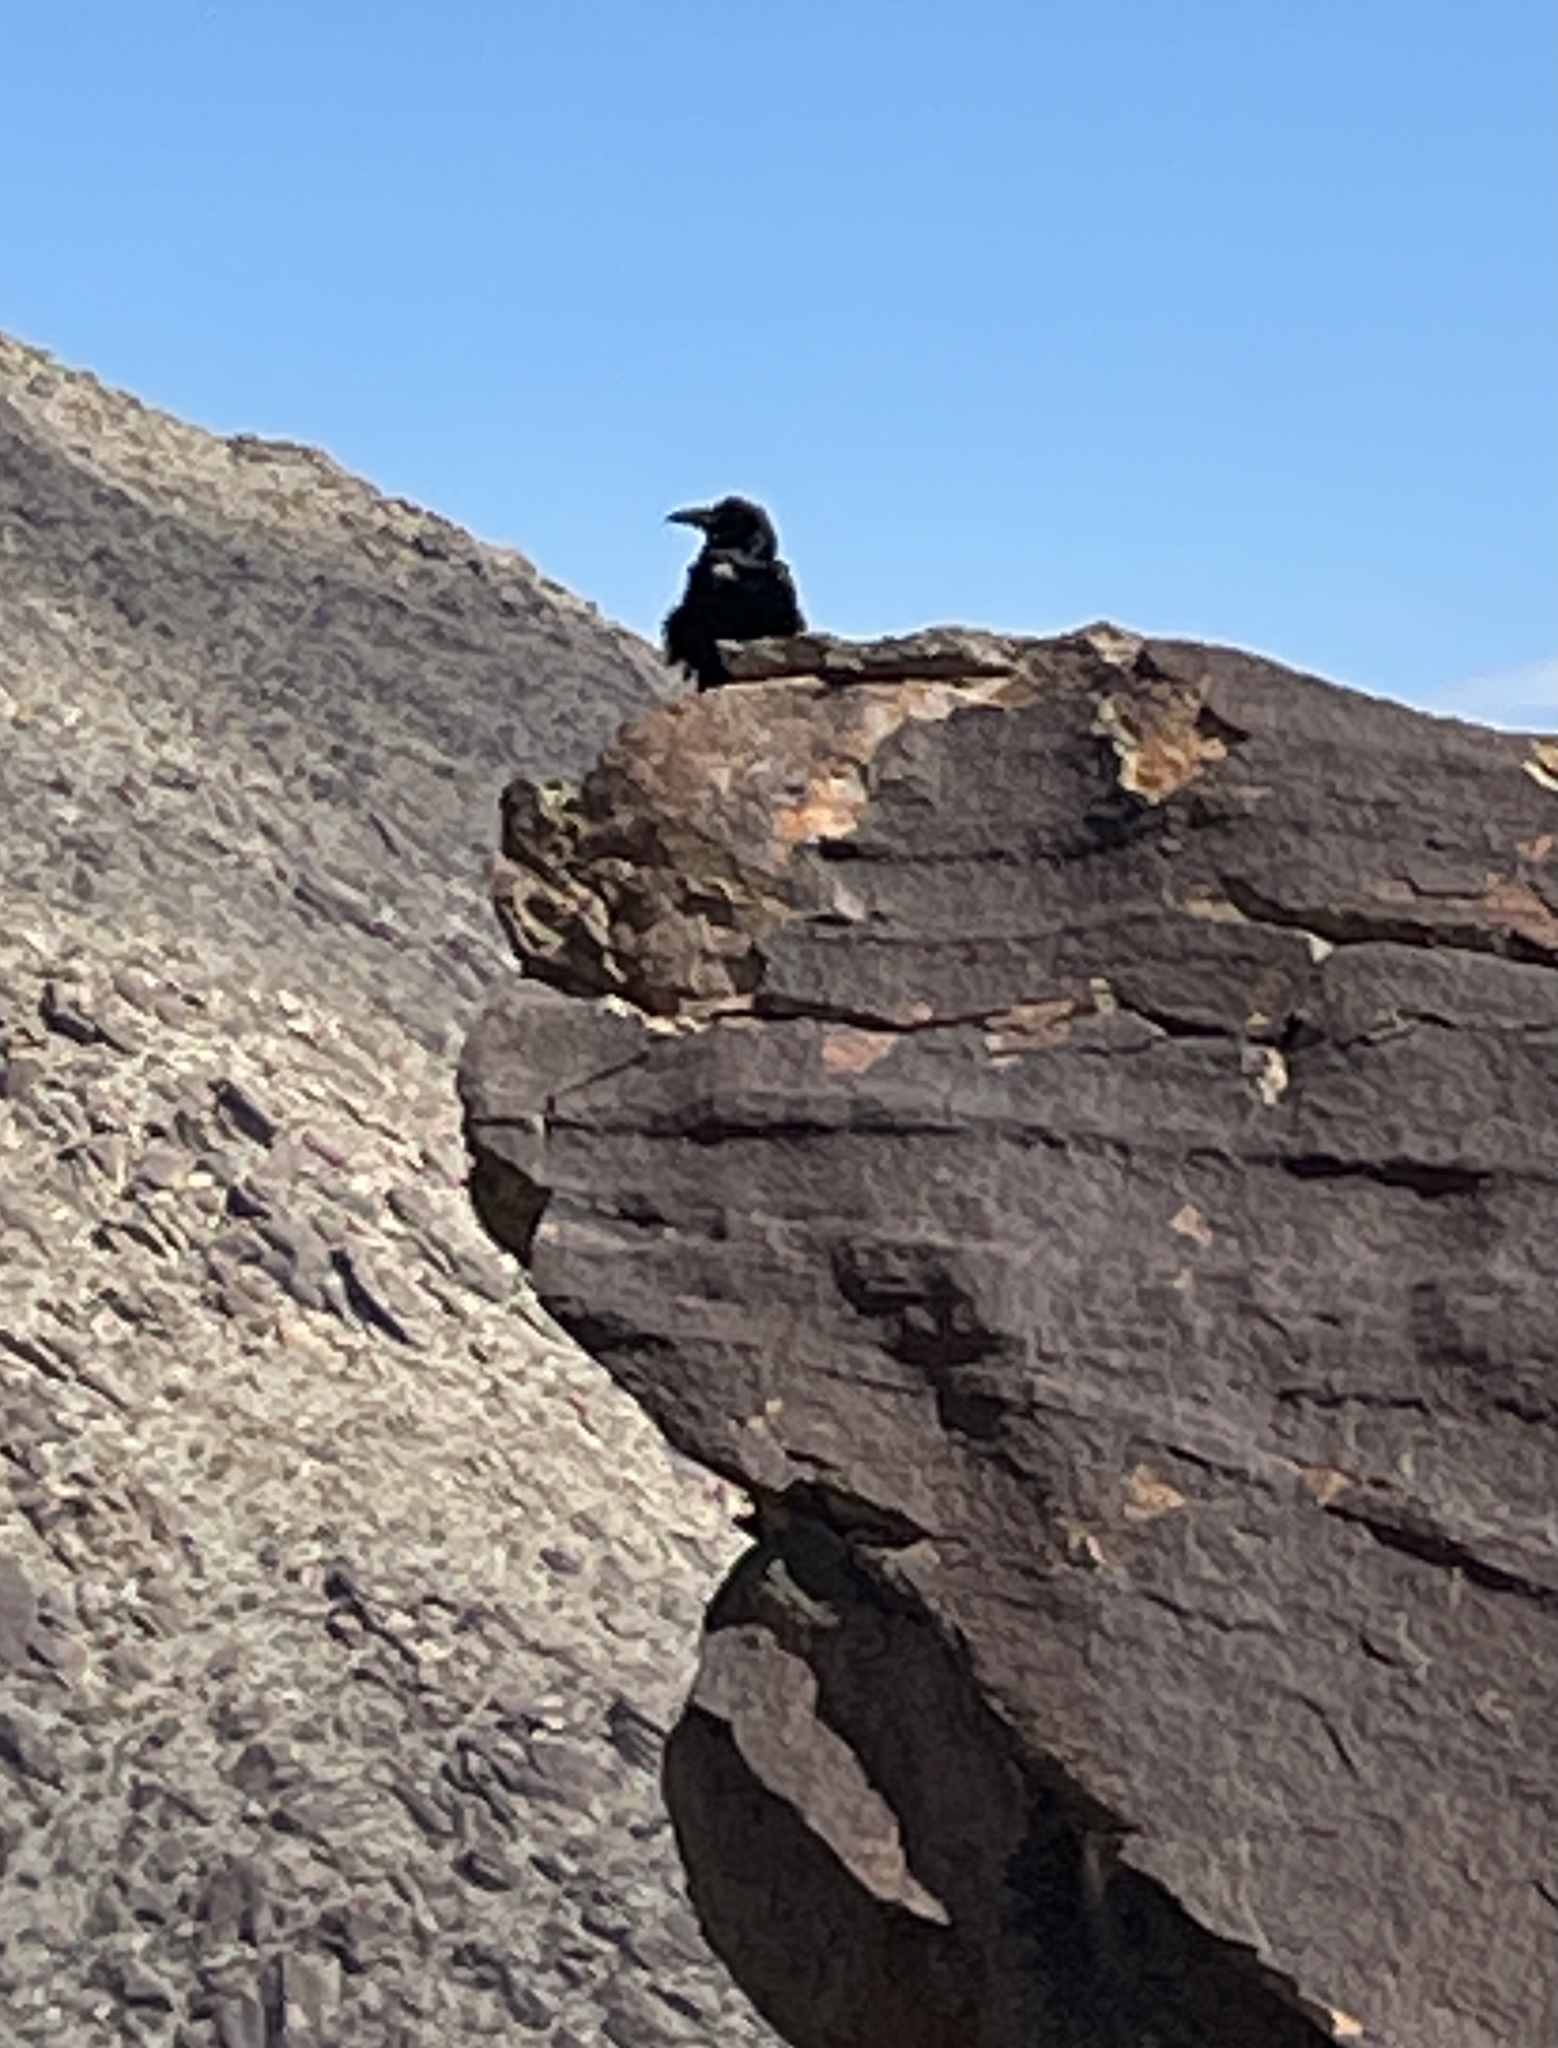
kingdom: Animalia
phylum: Chordata
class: Aves
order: Passeriformes
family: Corvidae
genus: Corvus
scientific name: Corvus corax
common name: Common raven
